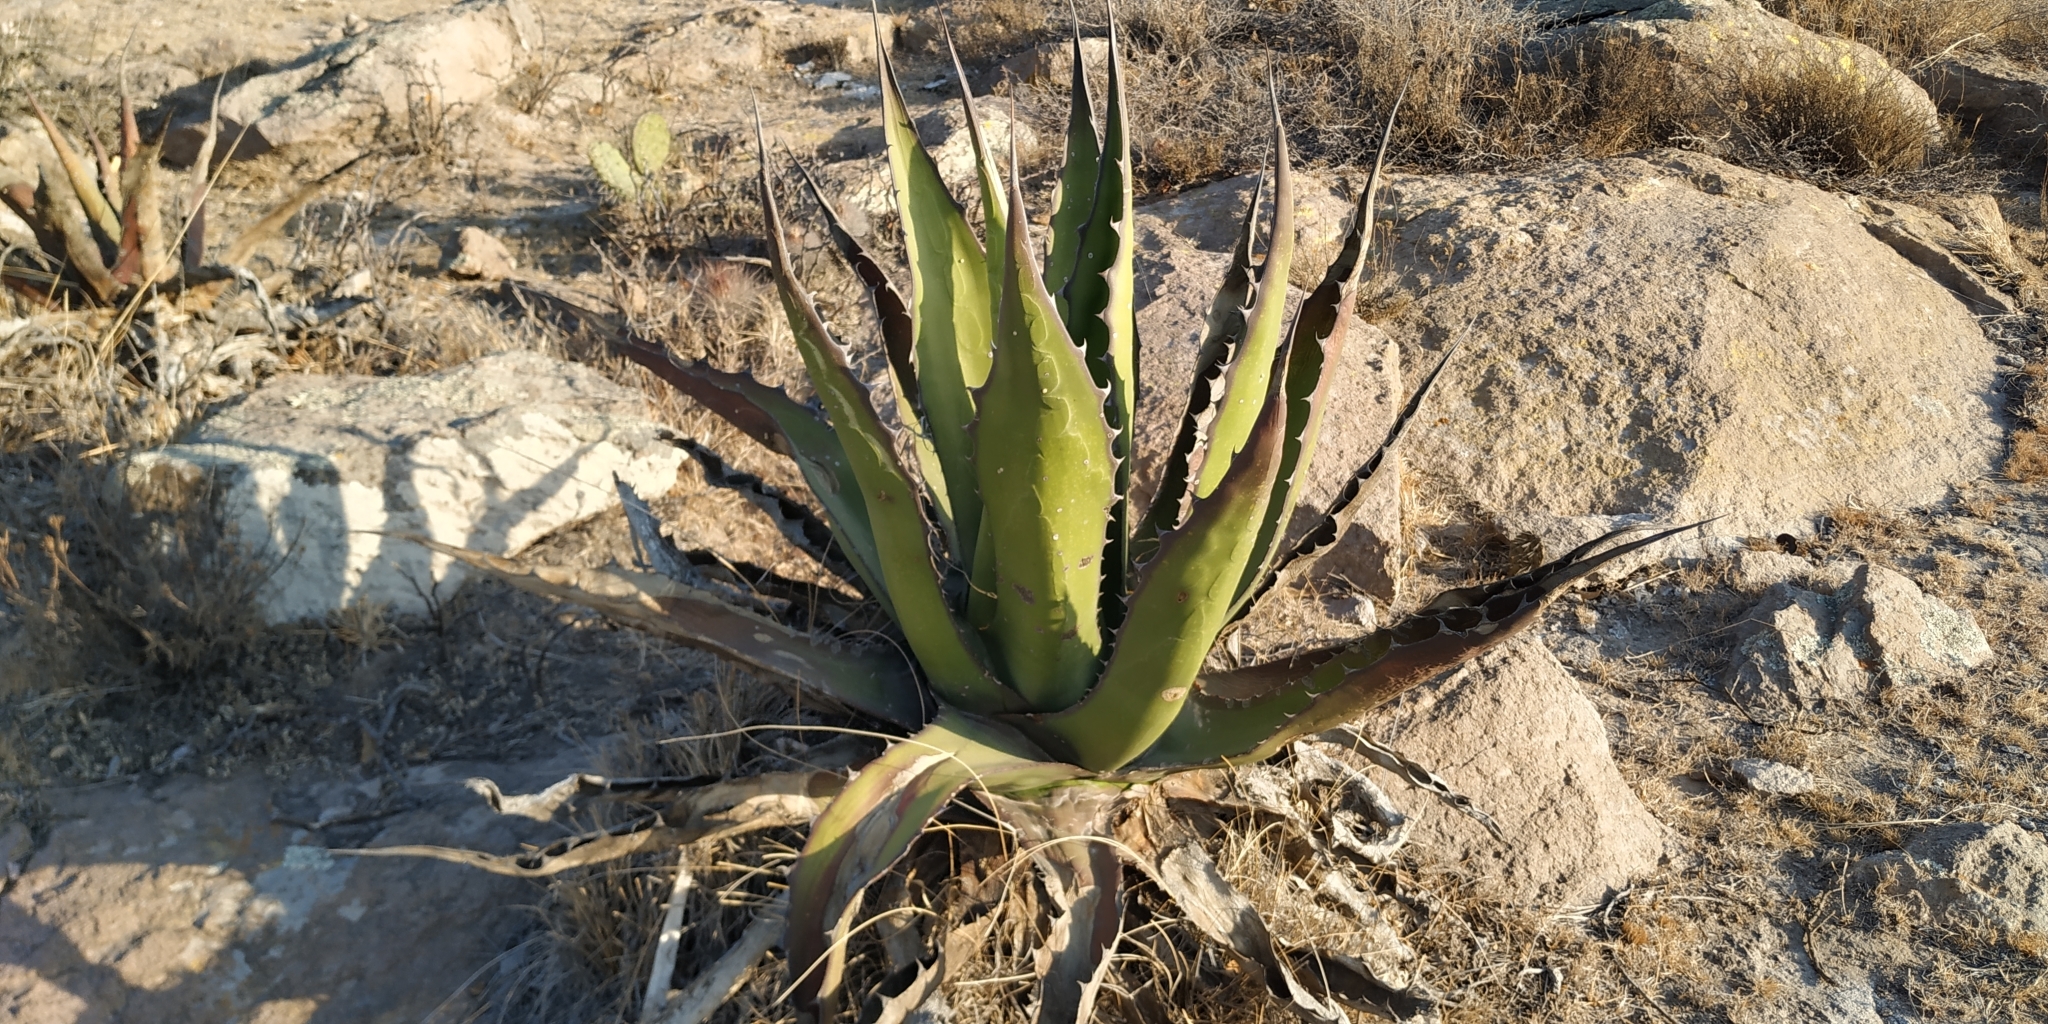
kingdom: Plantae
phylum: Tracheophyta
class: Liliopsida
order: Asparagales
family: Asparagaceae
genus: Agave
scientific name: Agave salmiana
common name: Pulque agave
